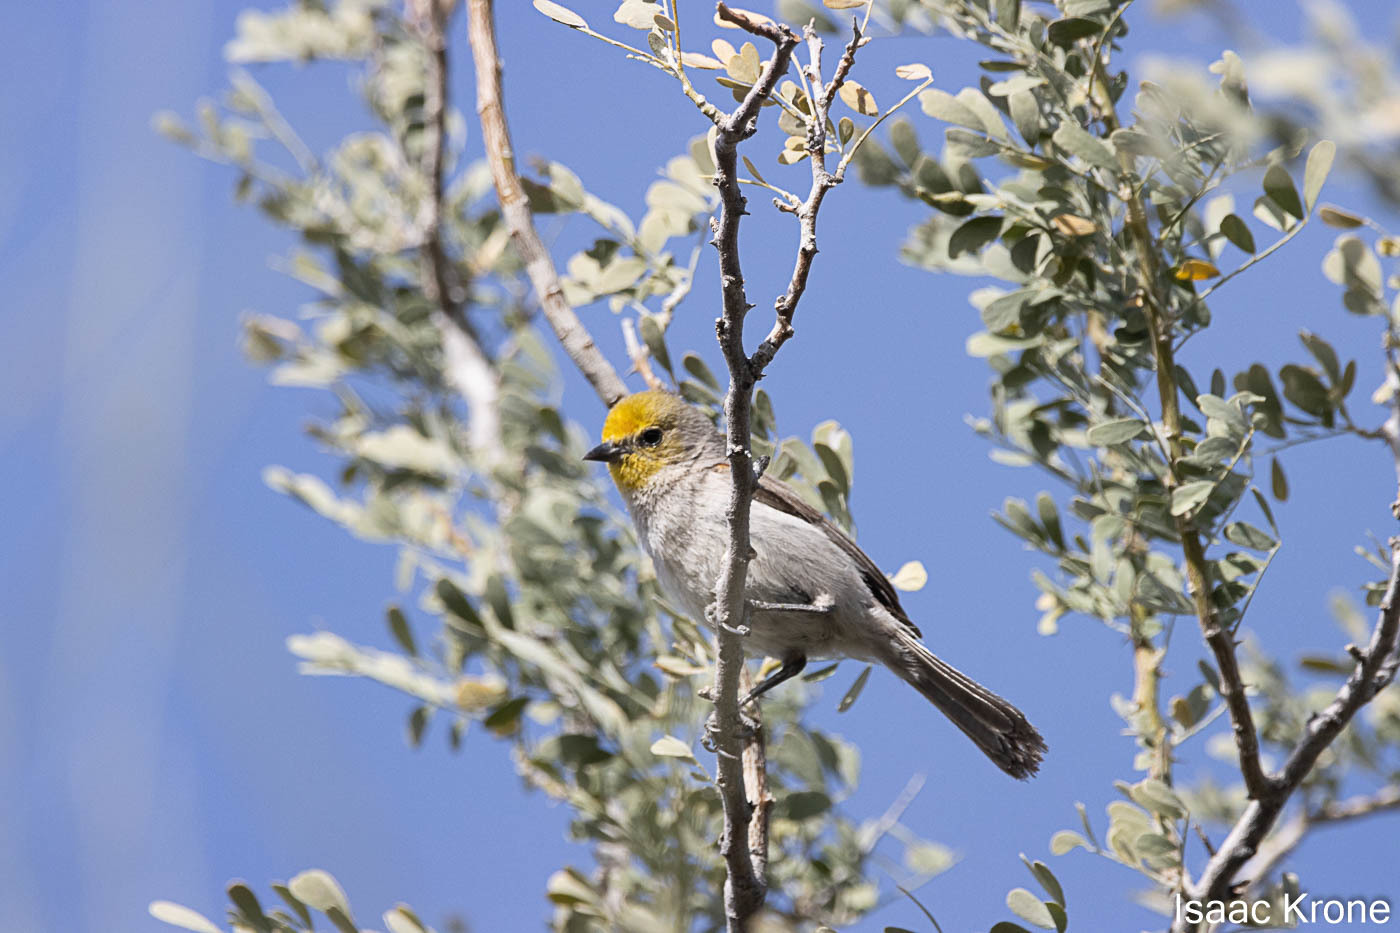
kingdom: Animalia
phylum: Chordata
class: Aves
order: Passeriformes
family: Remizidae
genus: Auriparus
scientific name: Auriparus flaviceps
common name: Verdin
